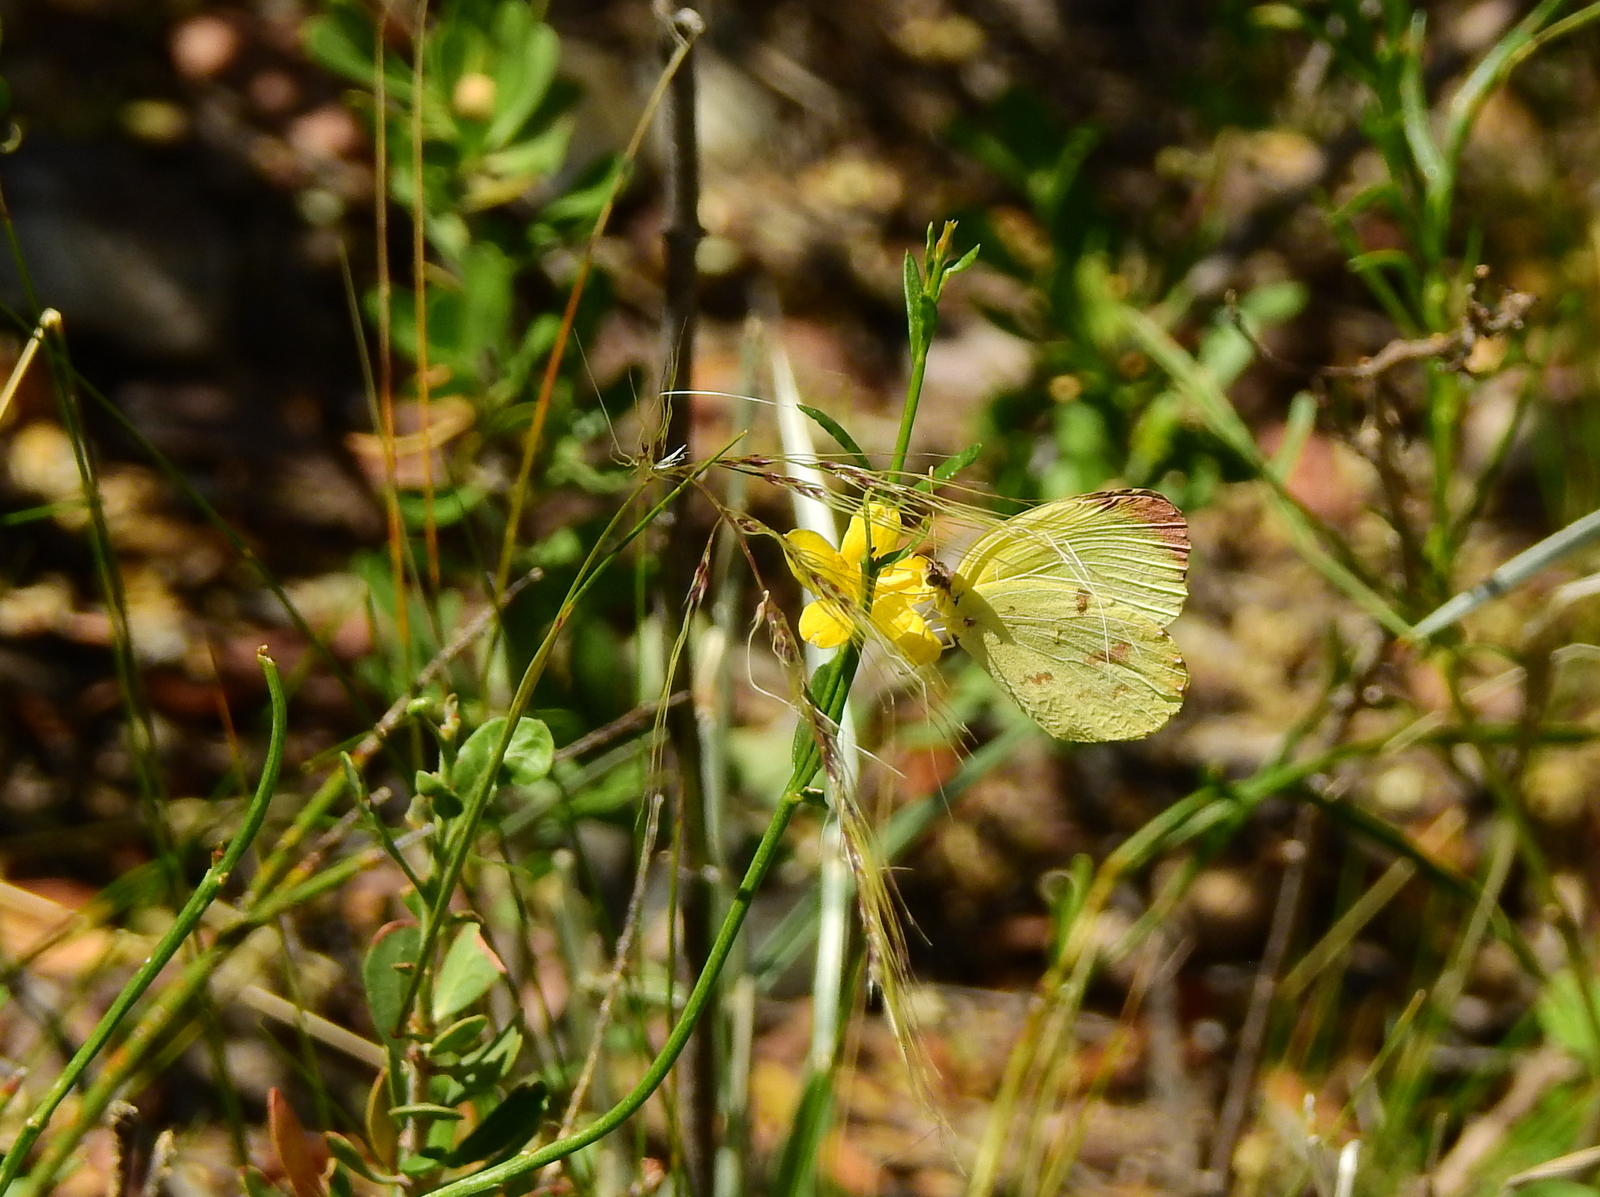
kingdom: Animalia
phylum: Arthropoda
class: Insecta
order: Lepidoptera
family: Pieridae
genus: Teriocolias
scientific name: Teriocolias
